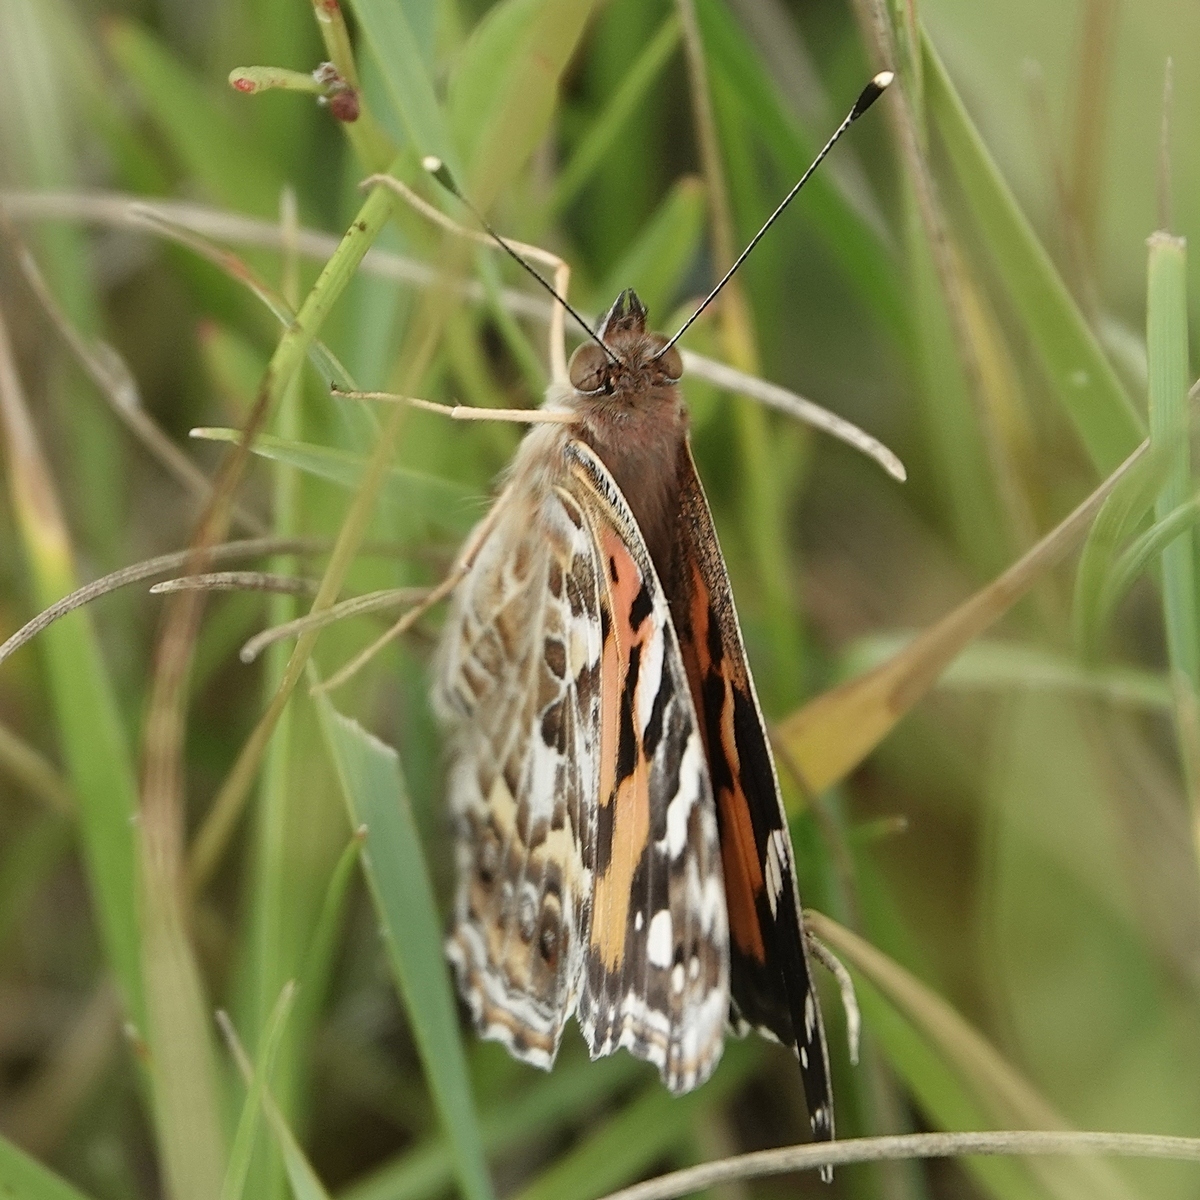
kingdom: Animalia
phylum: Arthropoda
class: Insecta
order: Lepidoptera
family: Nymphalidae
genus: Vanessa
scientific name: Vanessa kershawi
